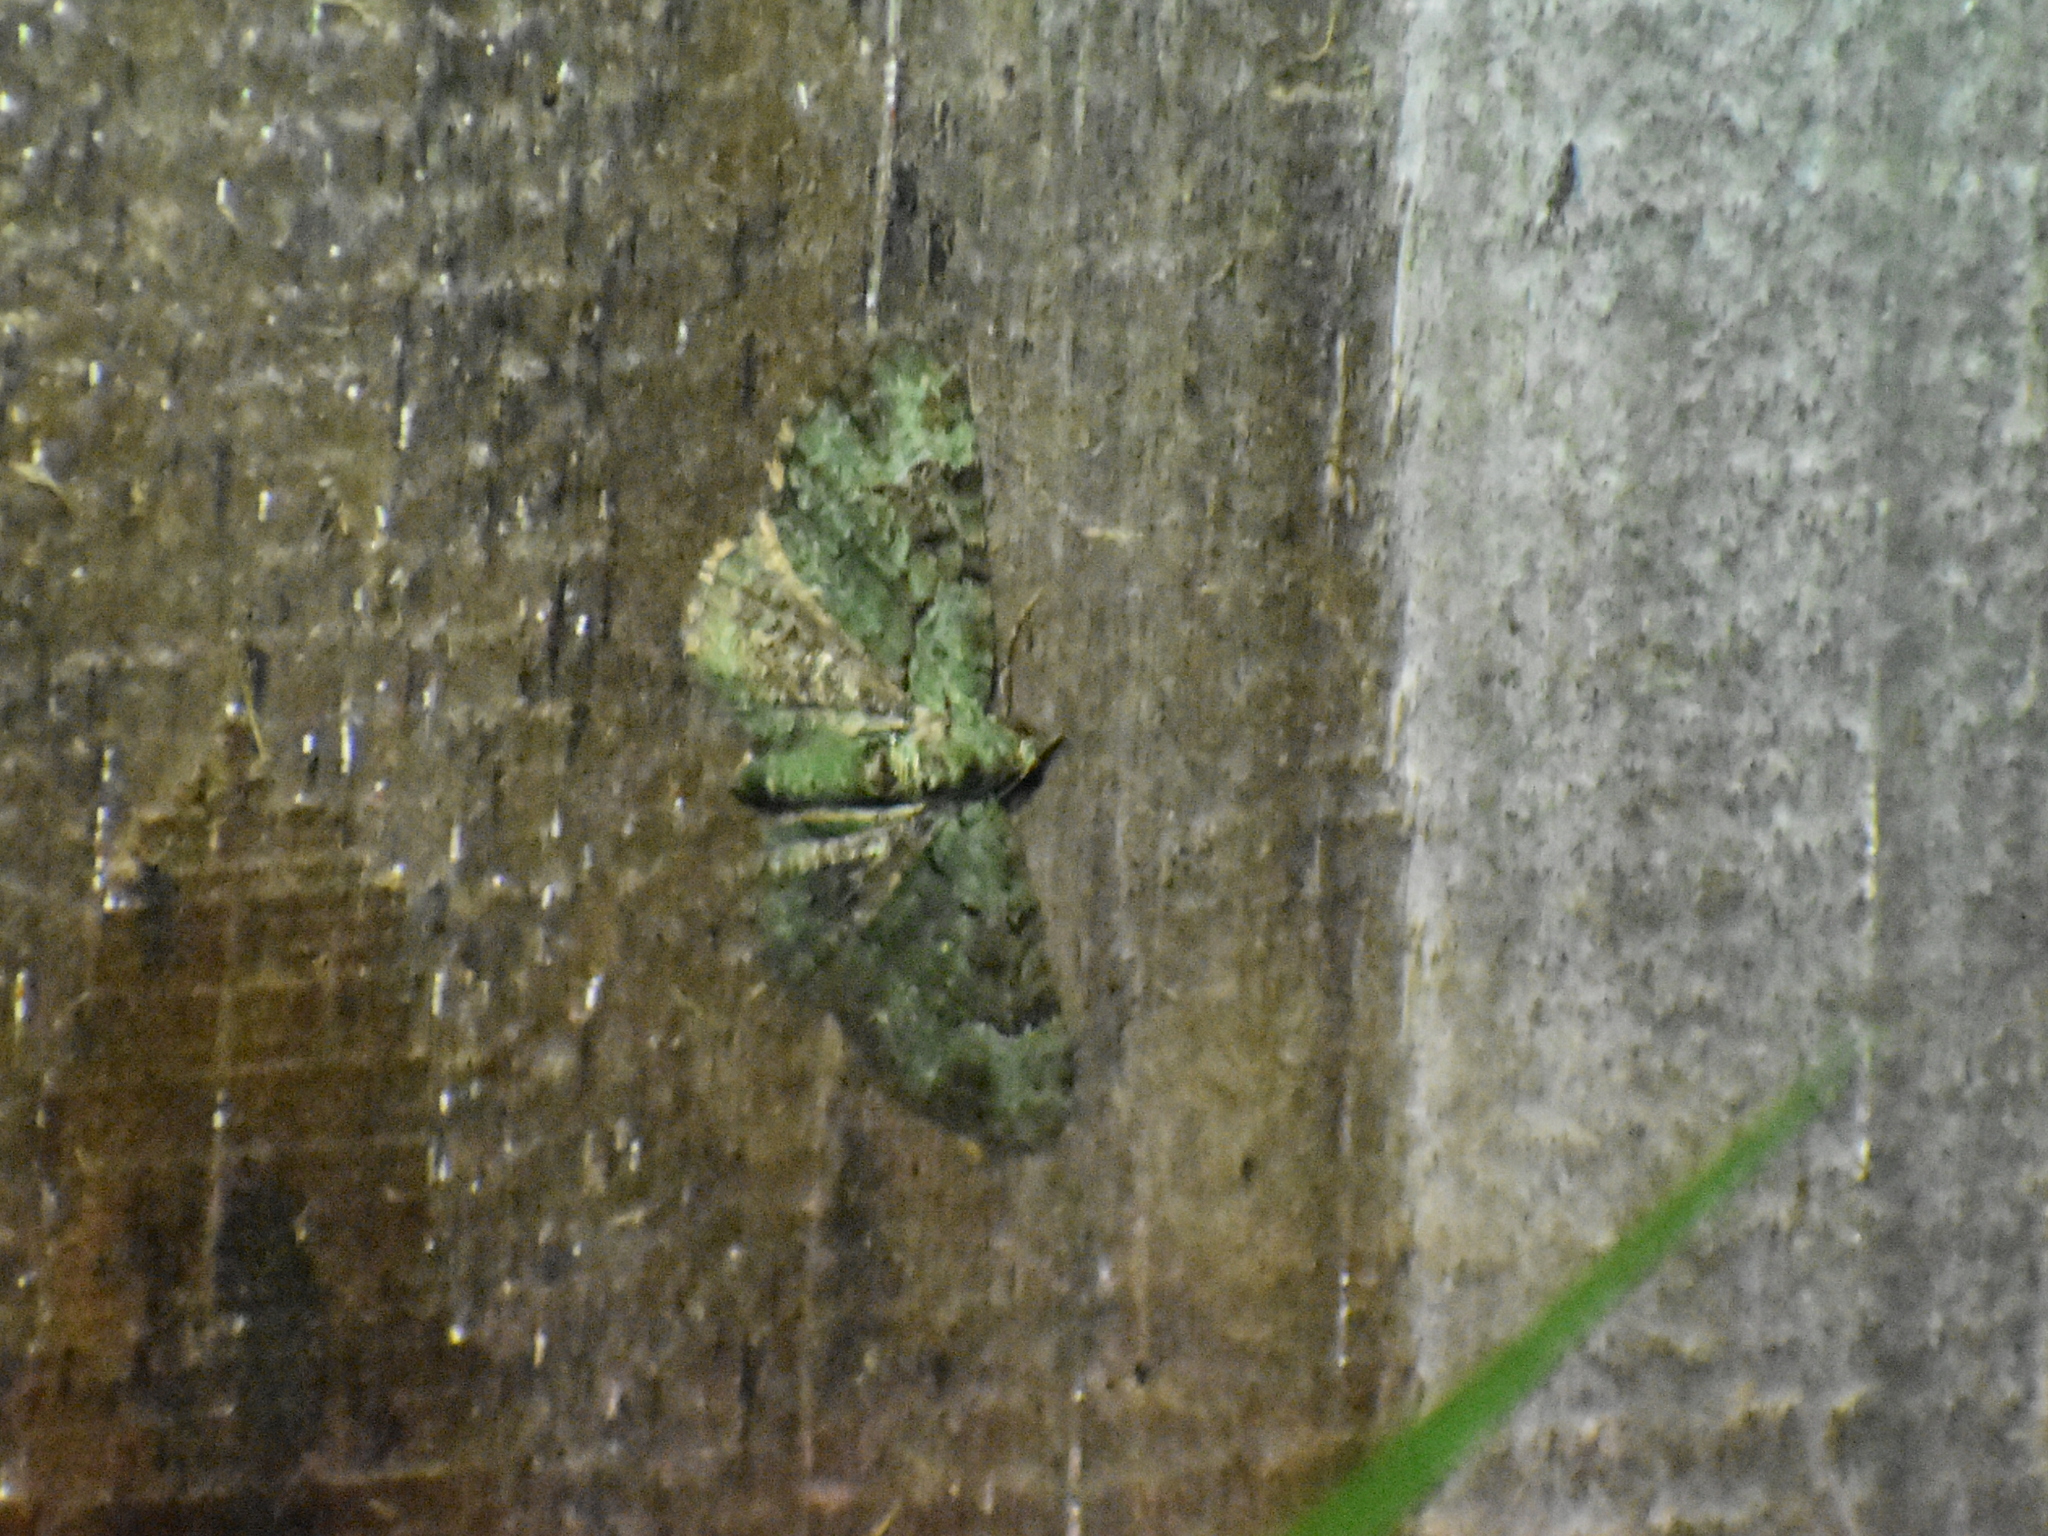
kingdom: Animalia
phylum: Arthropoda
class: Insecta
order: Lepidoptera
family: Geometridae
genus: Pasiphila
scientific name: Pasiphila rectangulata
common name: Green pug
